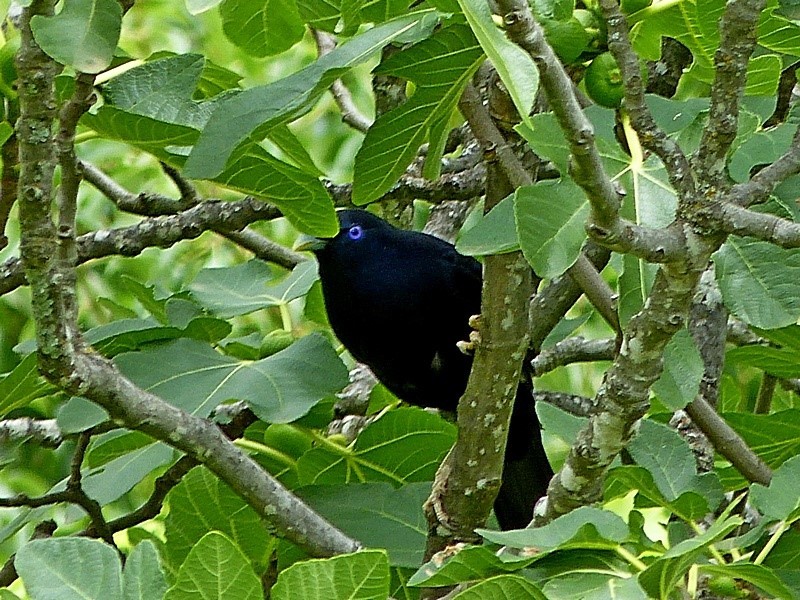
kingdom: Animalia
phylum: Chordata
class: Aves
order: Passeriformes
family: Ptilonorhynchidae
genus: Ptilonorhynchus
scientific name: Ptilonorhynchus violaceus
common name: Satin bowerbird
